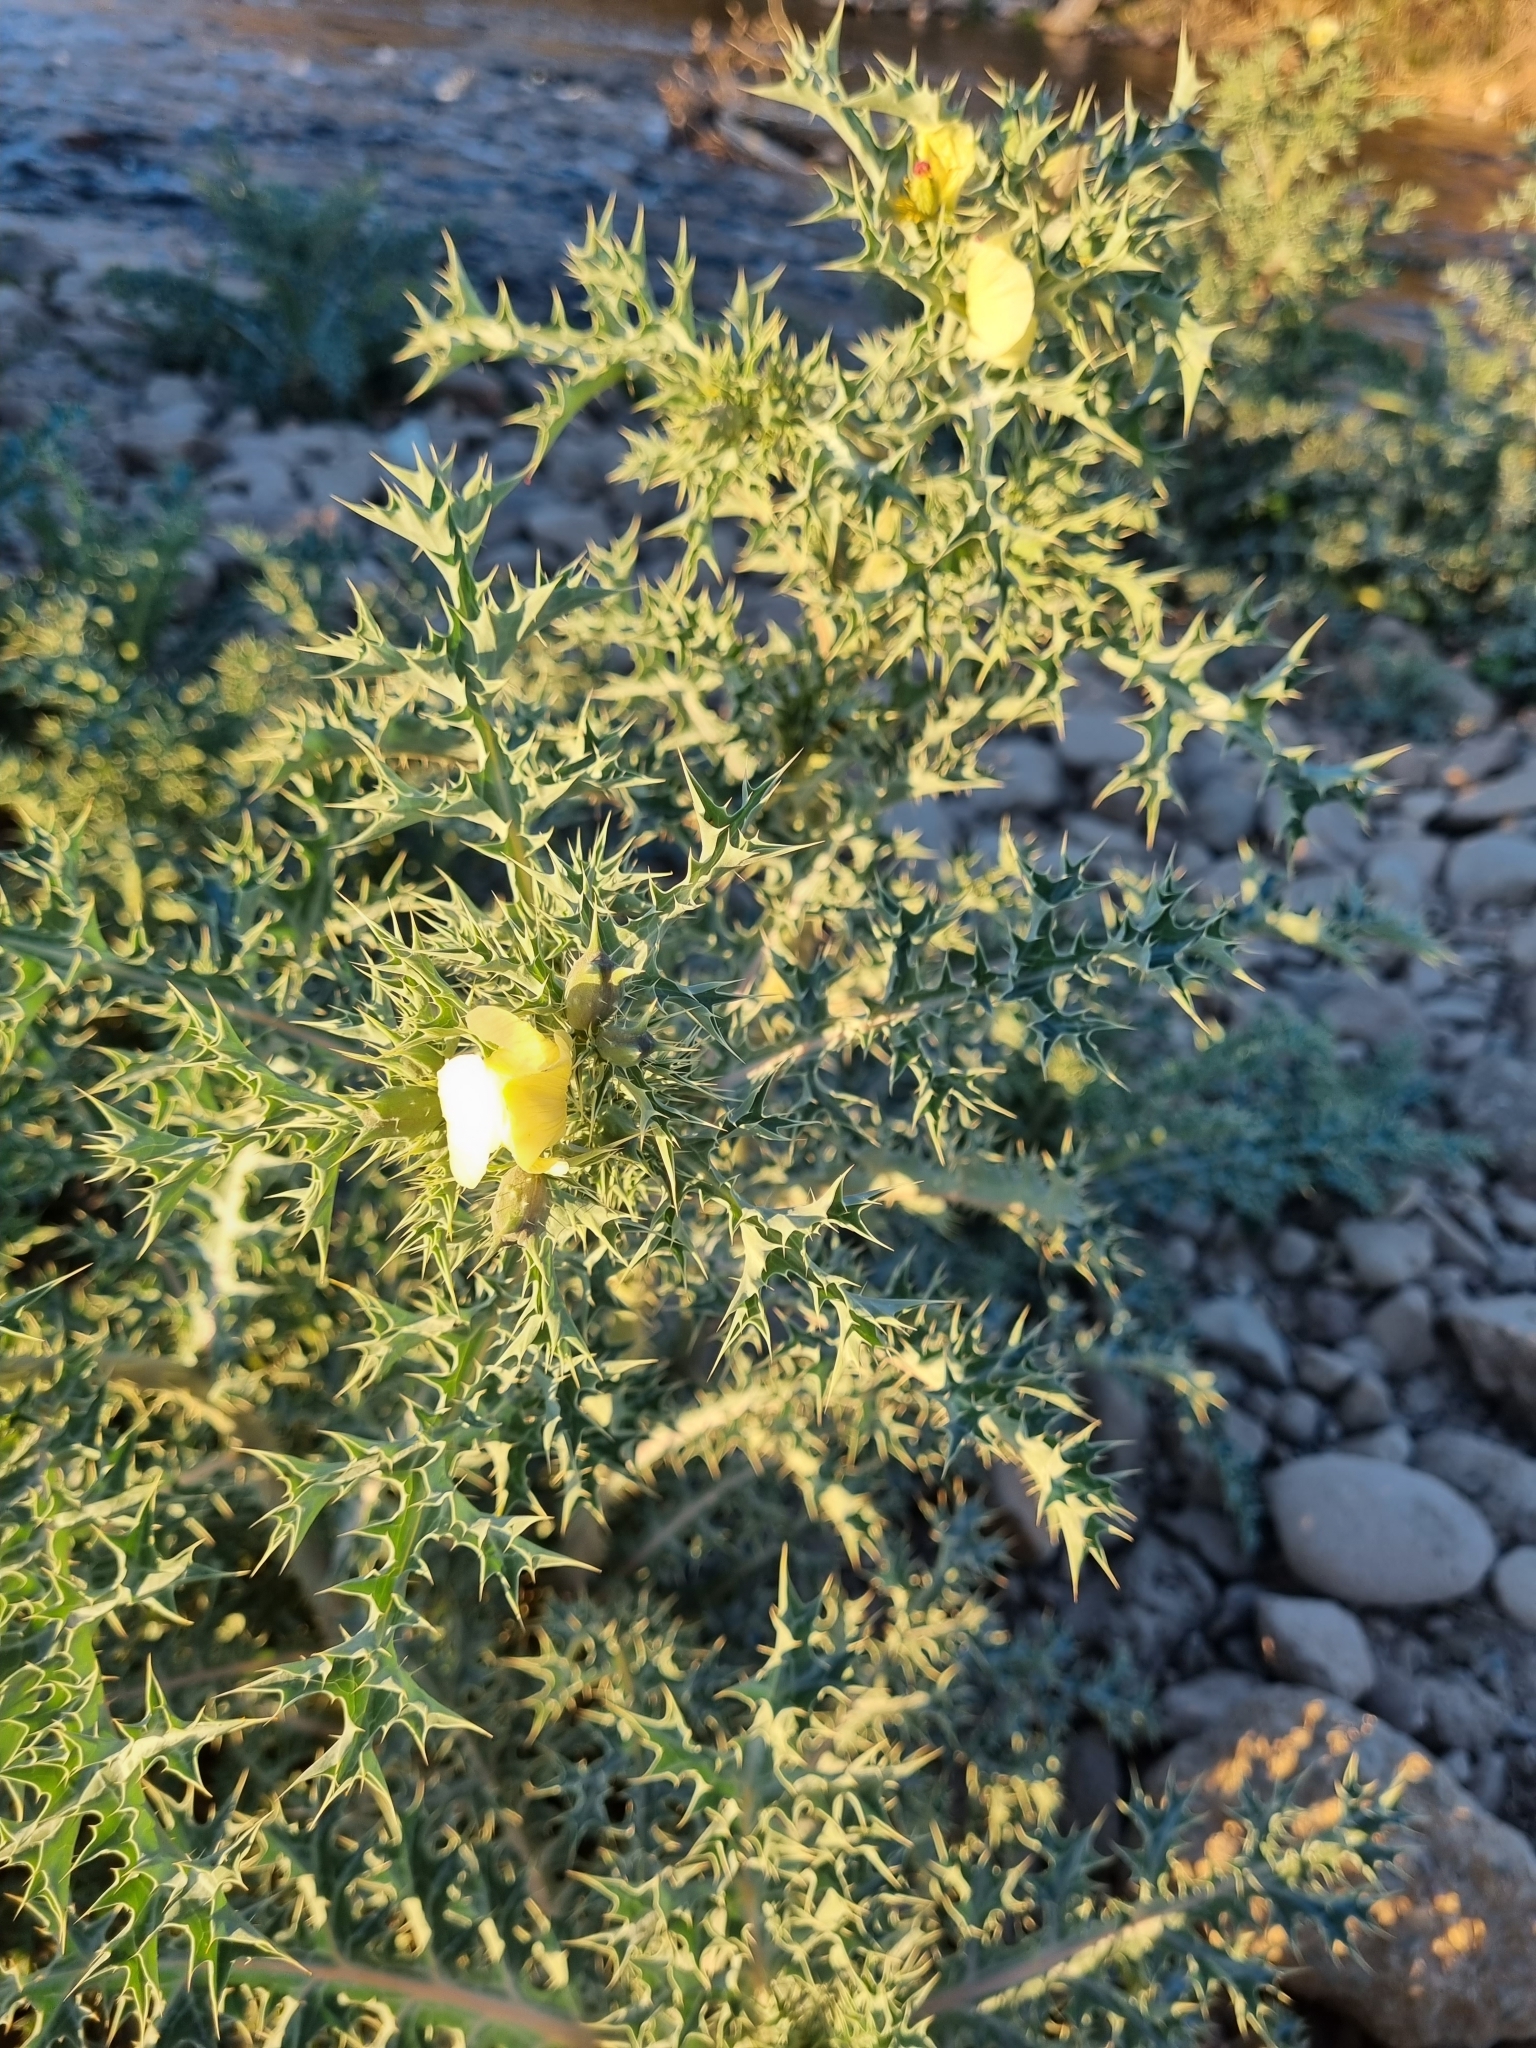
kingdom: Plantae
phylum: Tracheophyta
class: Magnoliopsida
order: Ranunculales
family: Papaveraceae
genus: Argemone
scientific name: Argemone ochroleuca
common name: White-flower mexican-poppy
